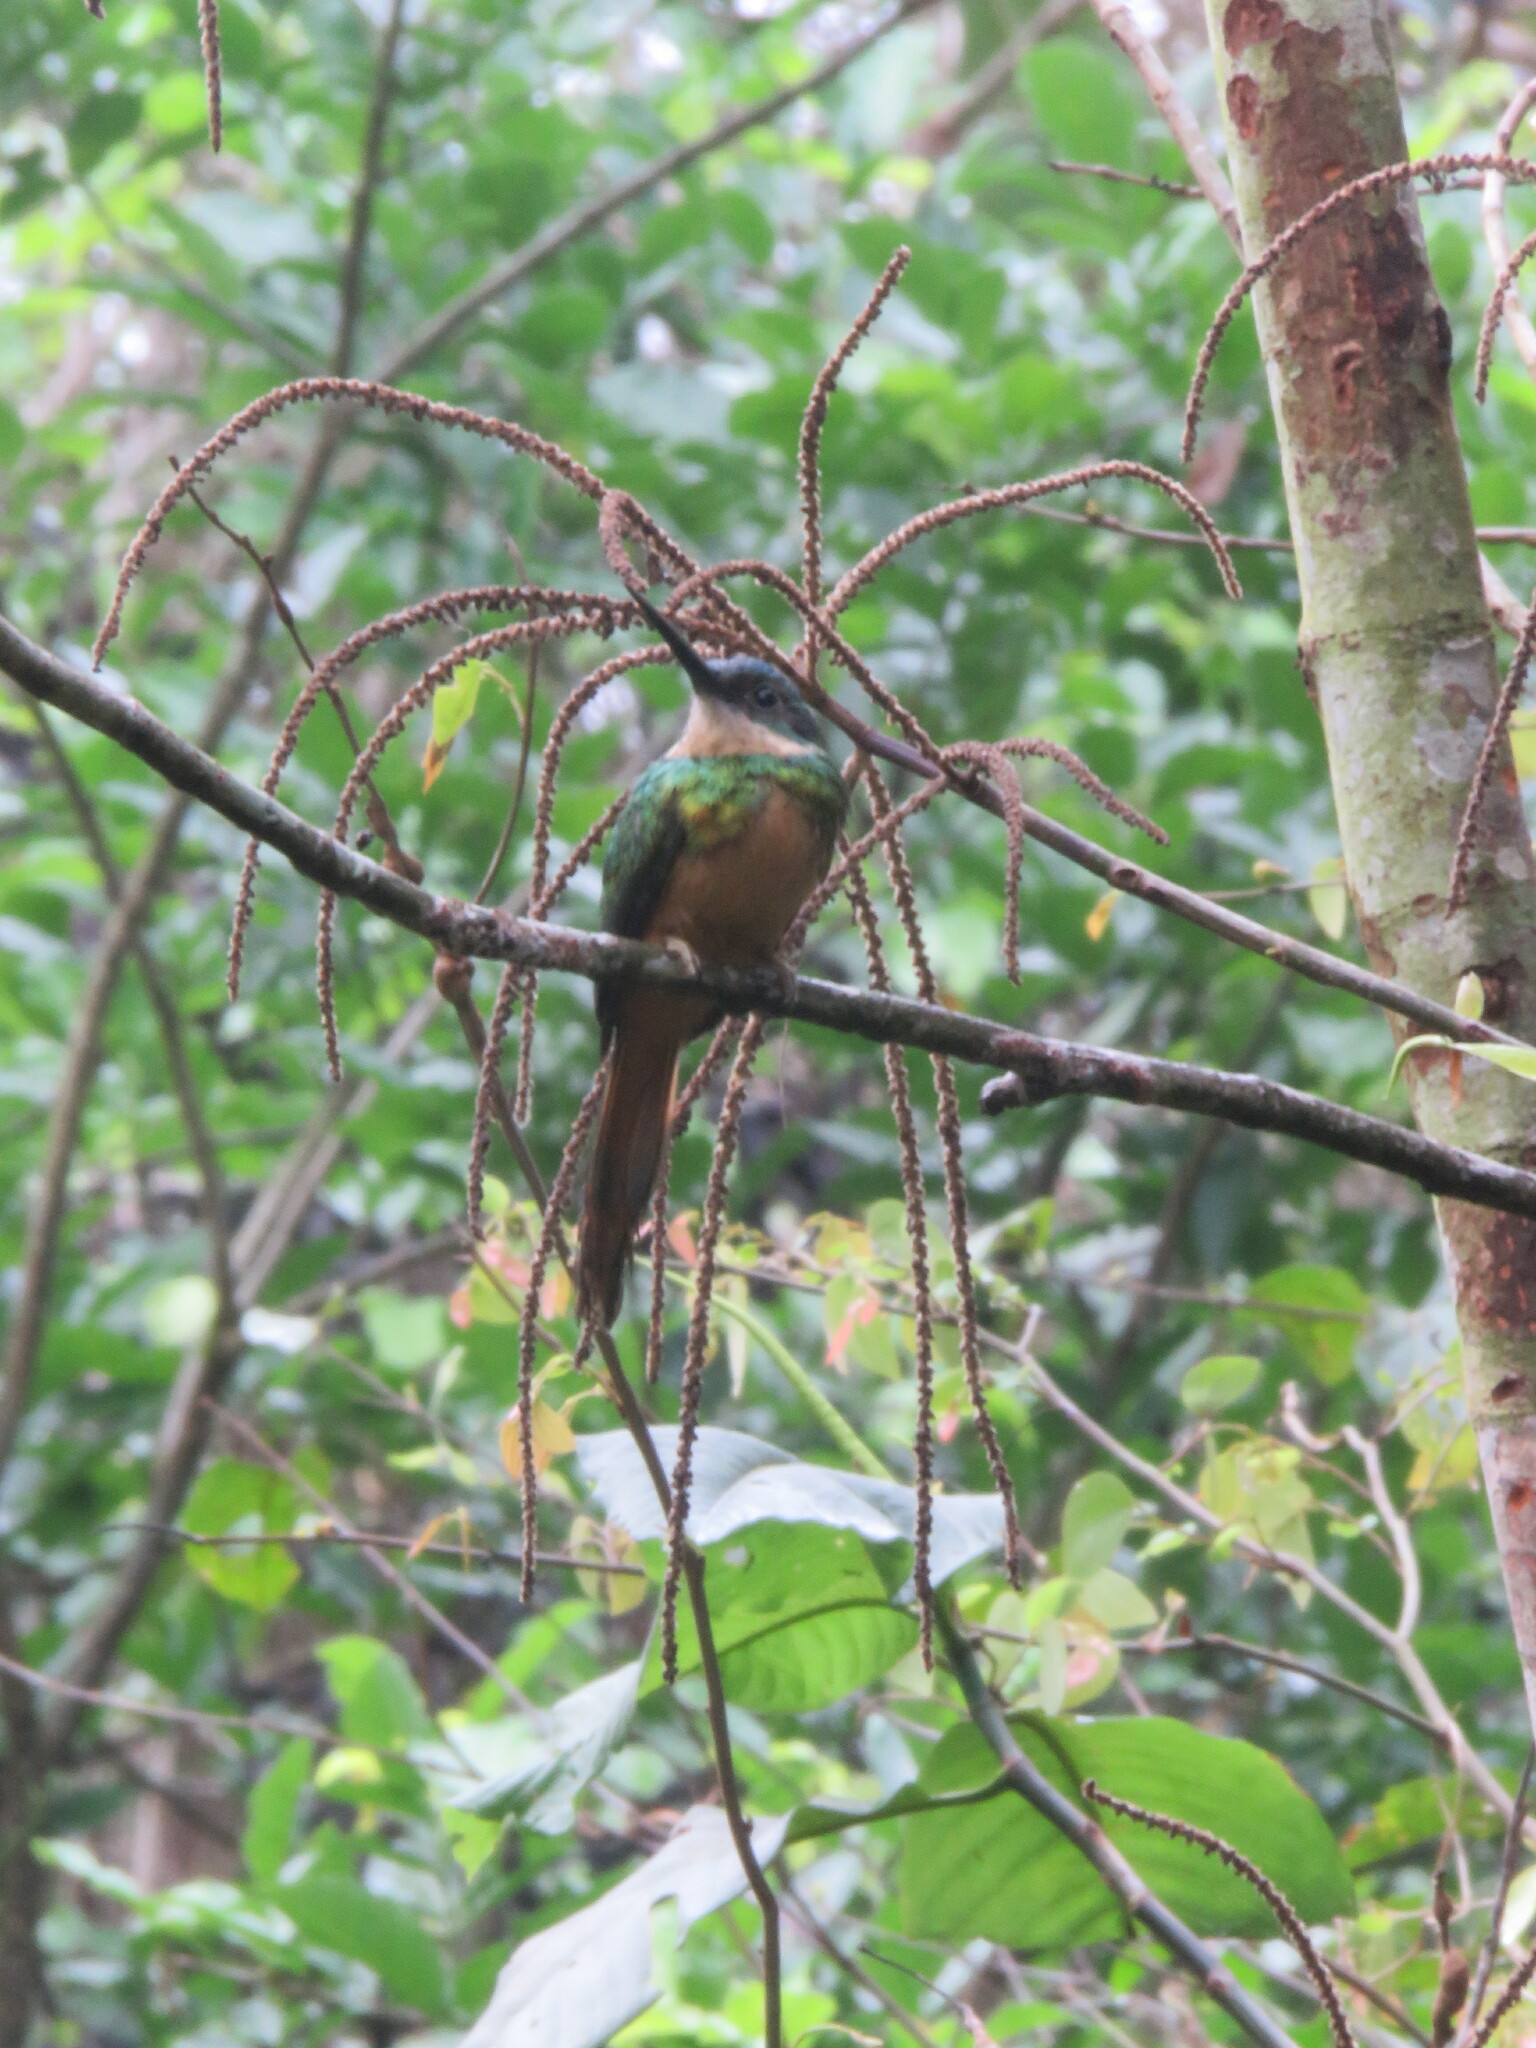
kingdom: Animalia
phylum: Chordata
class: Aves
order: Piciformes
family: Galbulidae
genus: Galbula
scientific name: Galbula ruficauda
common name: Rufous-tailed jacamar
